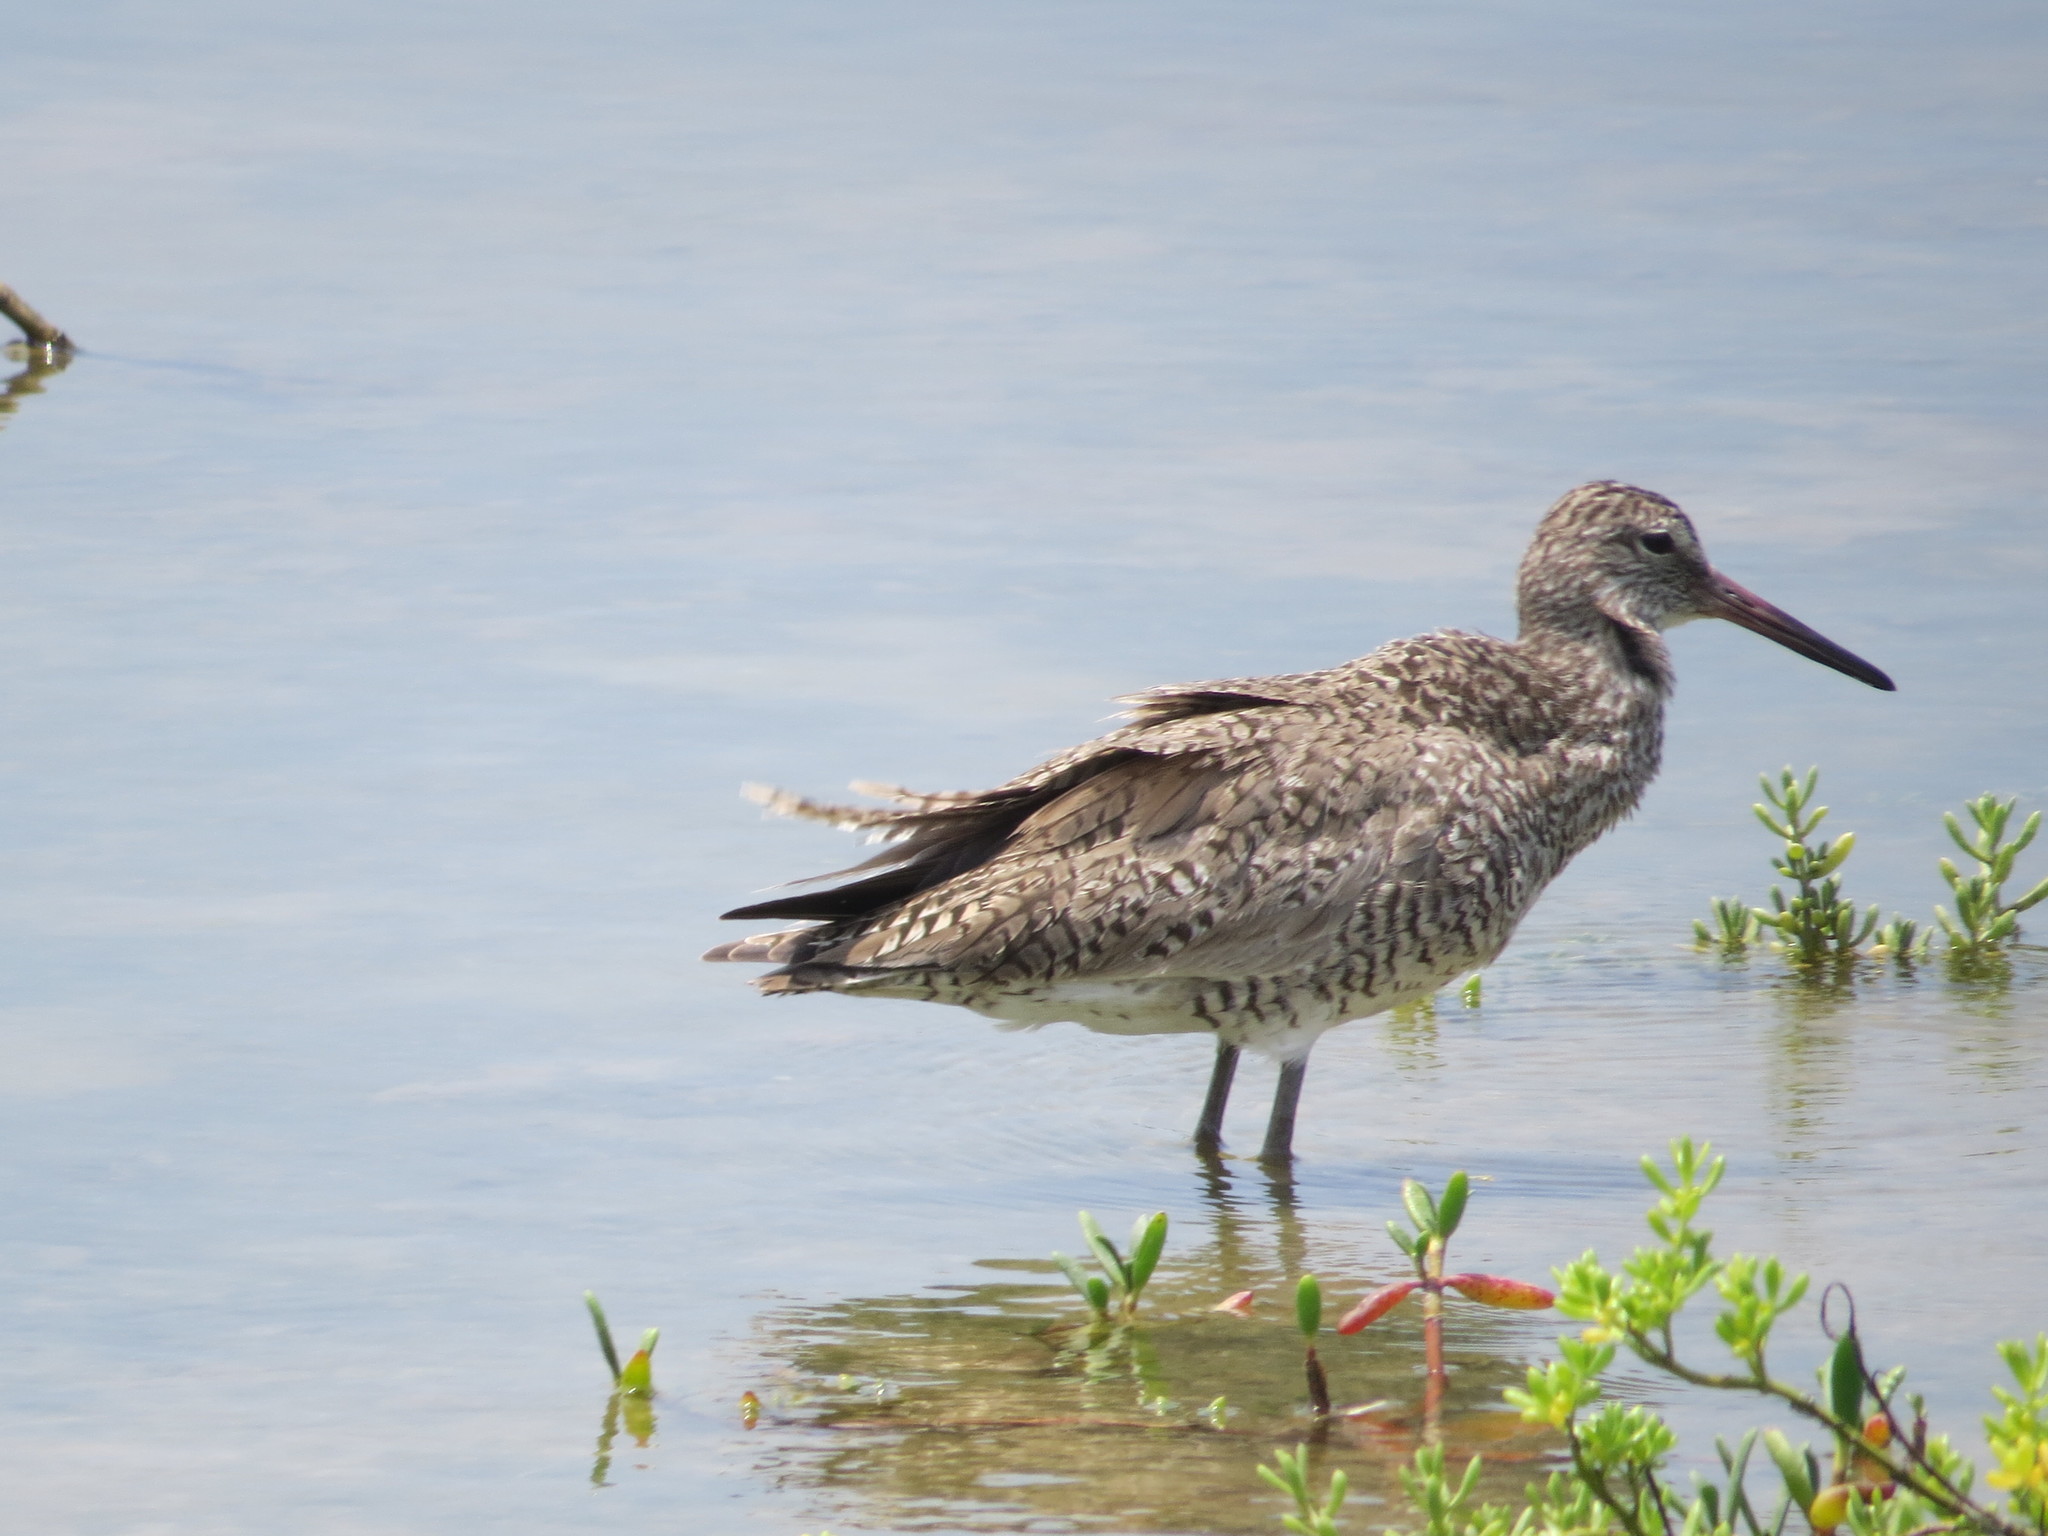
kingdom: Animalia
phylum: Chordata
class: Aves
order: Charadriiformes
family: Scolopacidae
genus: Tringa
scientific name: Tringa semipalmata
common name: Willet
